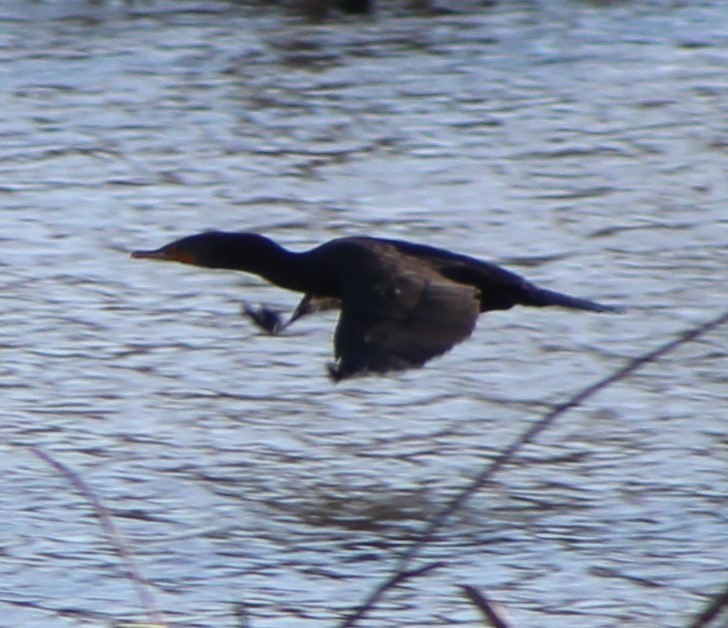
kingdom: Animalia
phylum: Chordata
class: Aves
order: Suliformes
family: Phalacrocoracidae
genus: Phalacrocorax
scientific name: Phalacrocorax auritus
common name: Double-crested cormorant
